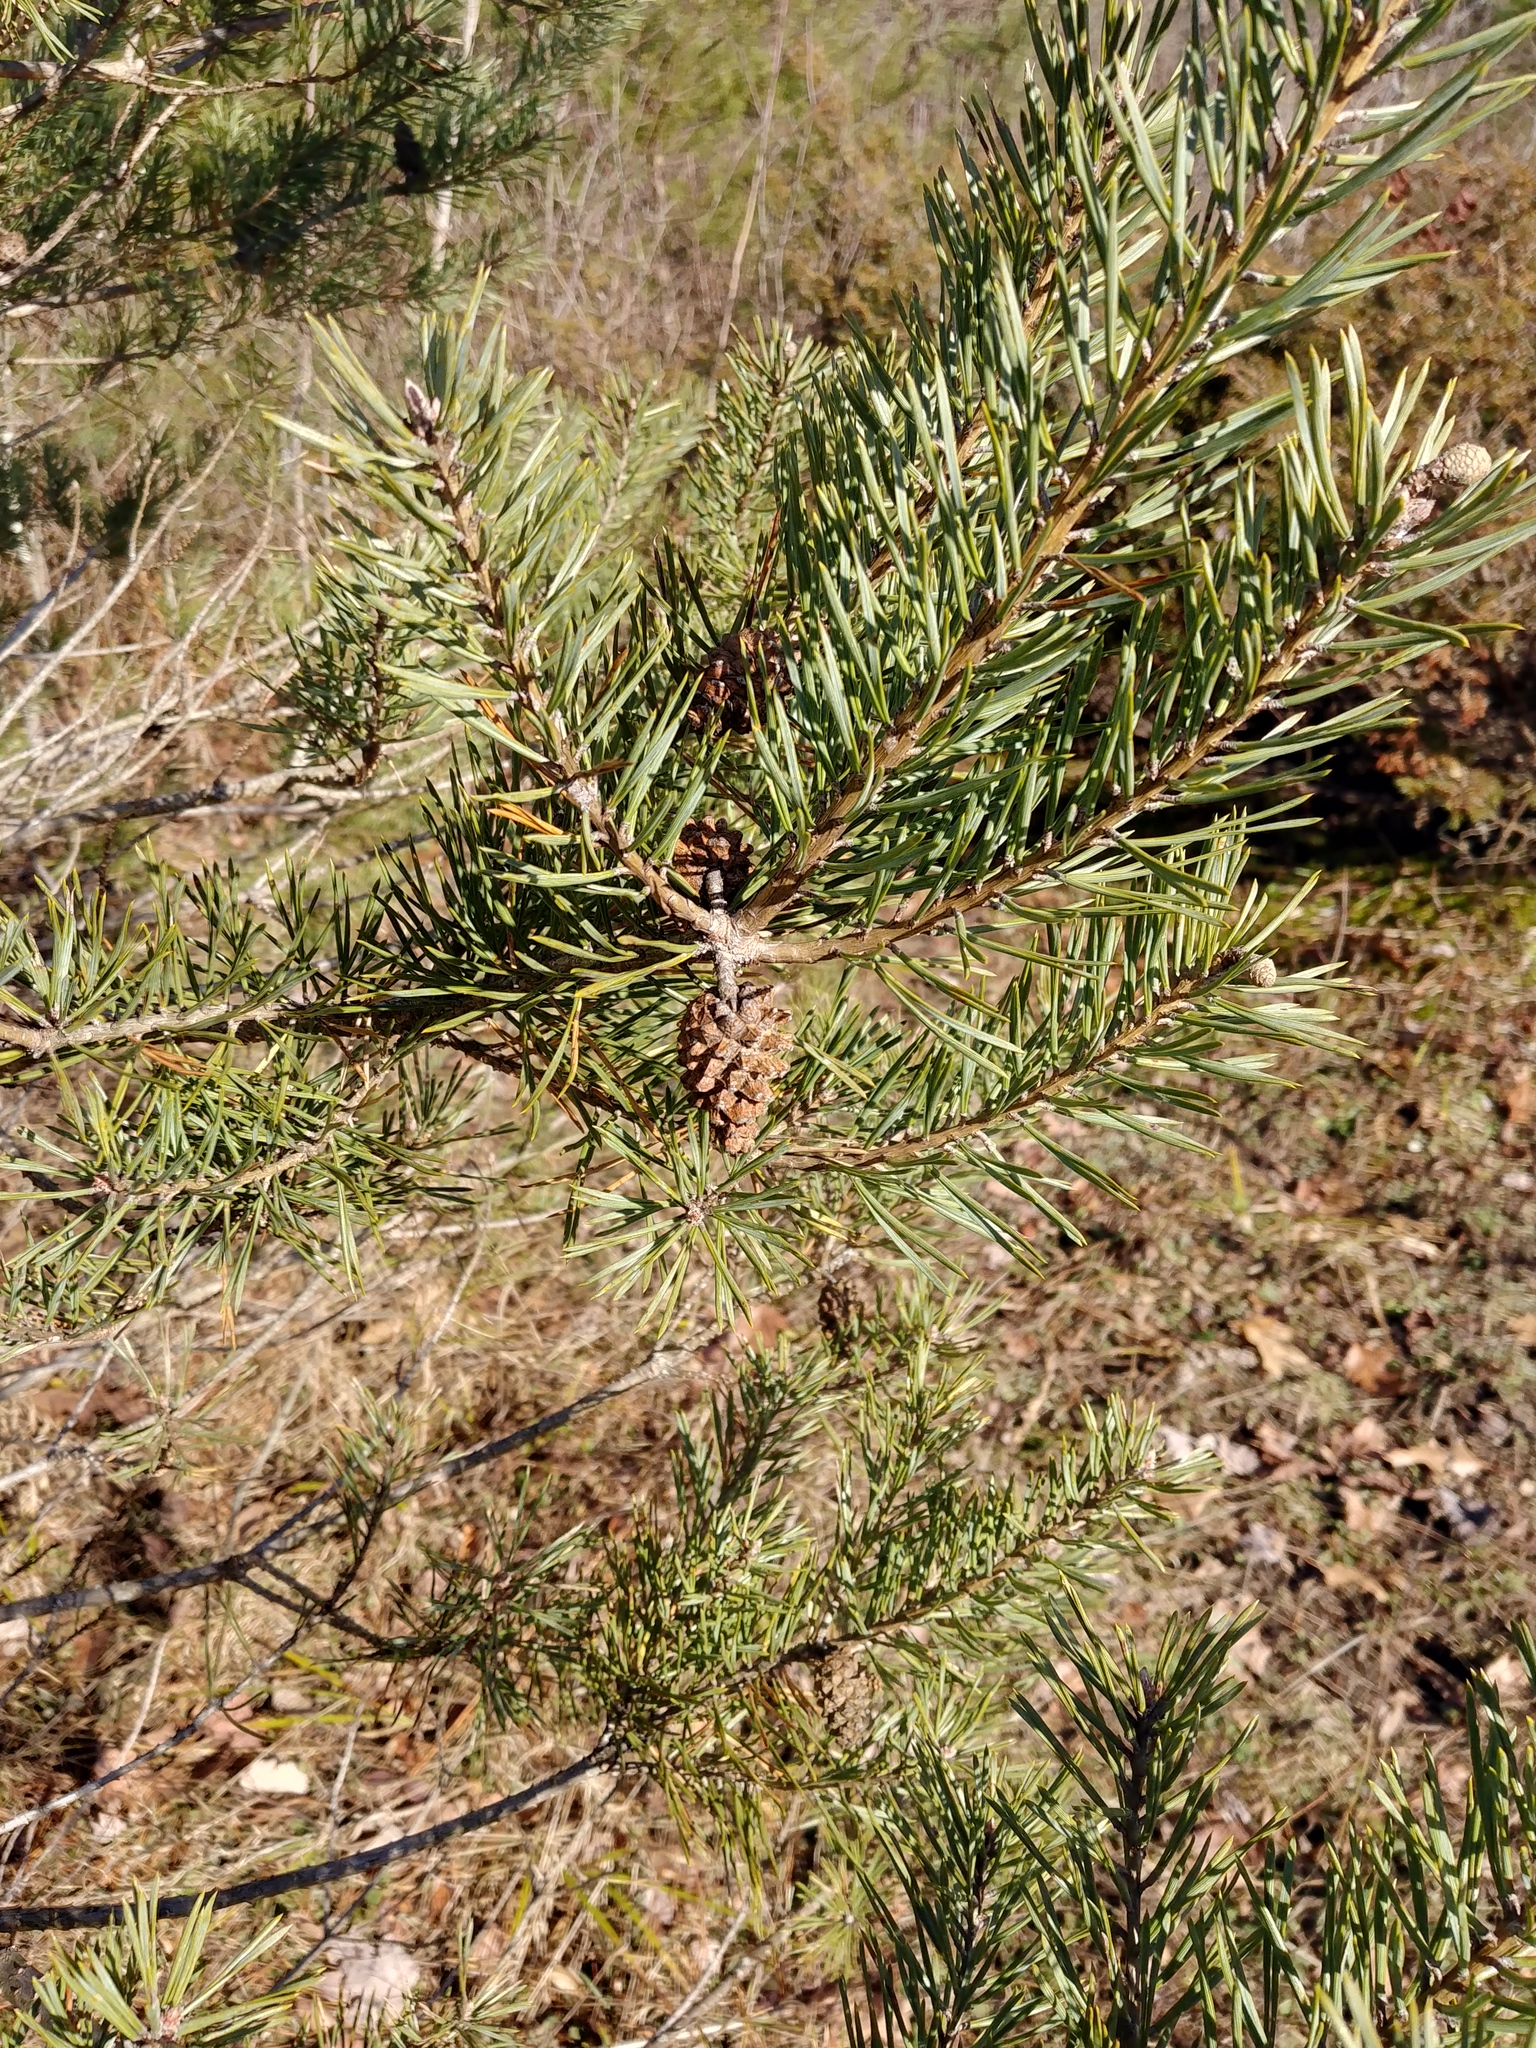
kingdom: Plantae
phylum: Tracheophyta
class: Pinopsida
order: Pinales
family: Pinaceae
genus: Pinus
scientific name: Pinus sylvestris
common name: Scots pine
